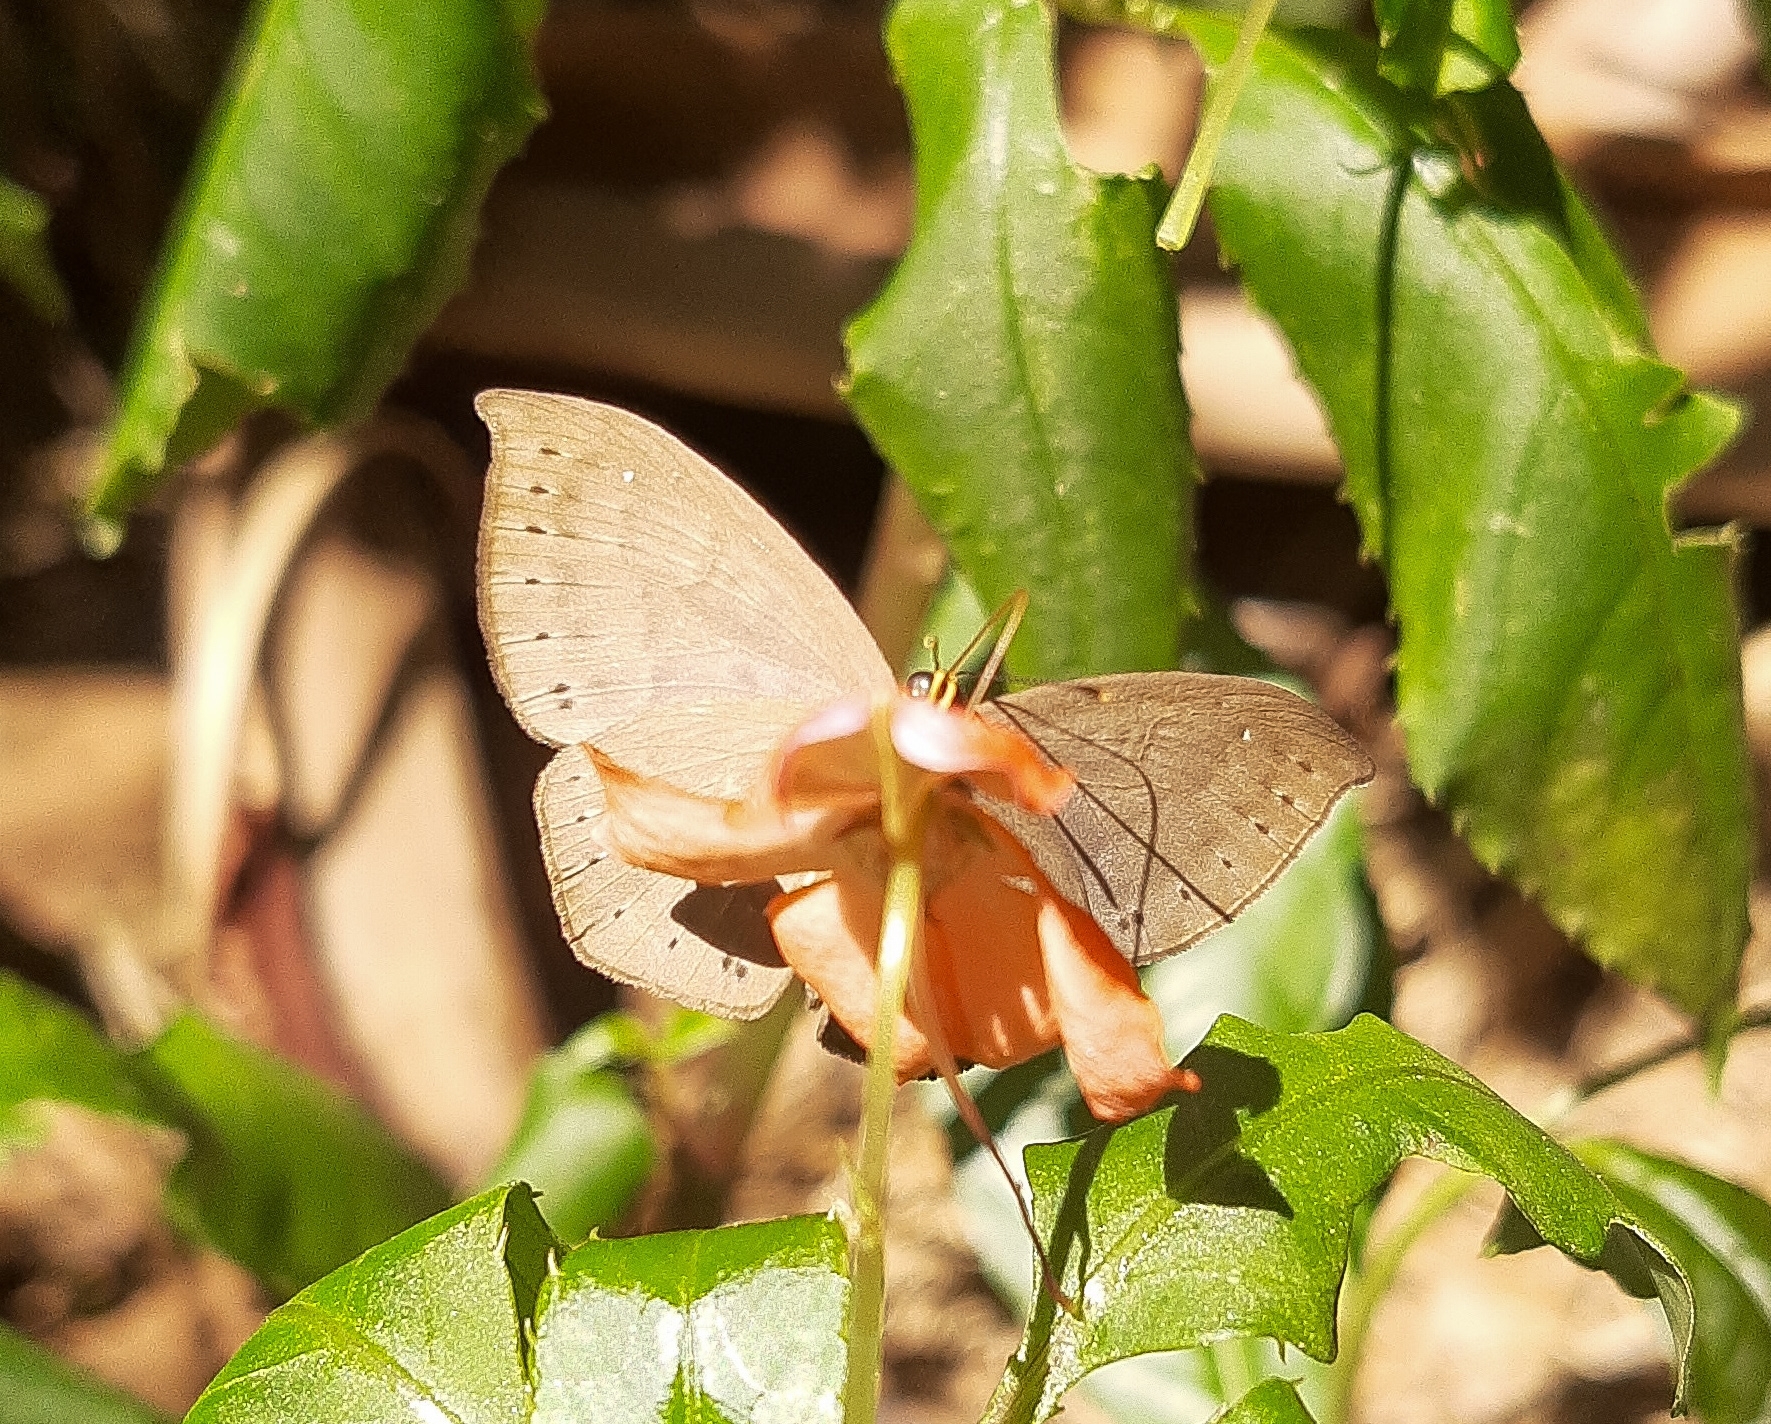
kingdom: Animalia
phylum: Cnidaria
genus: Eurybia
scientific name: Eurybia pergaea
